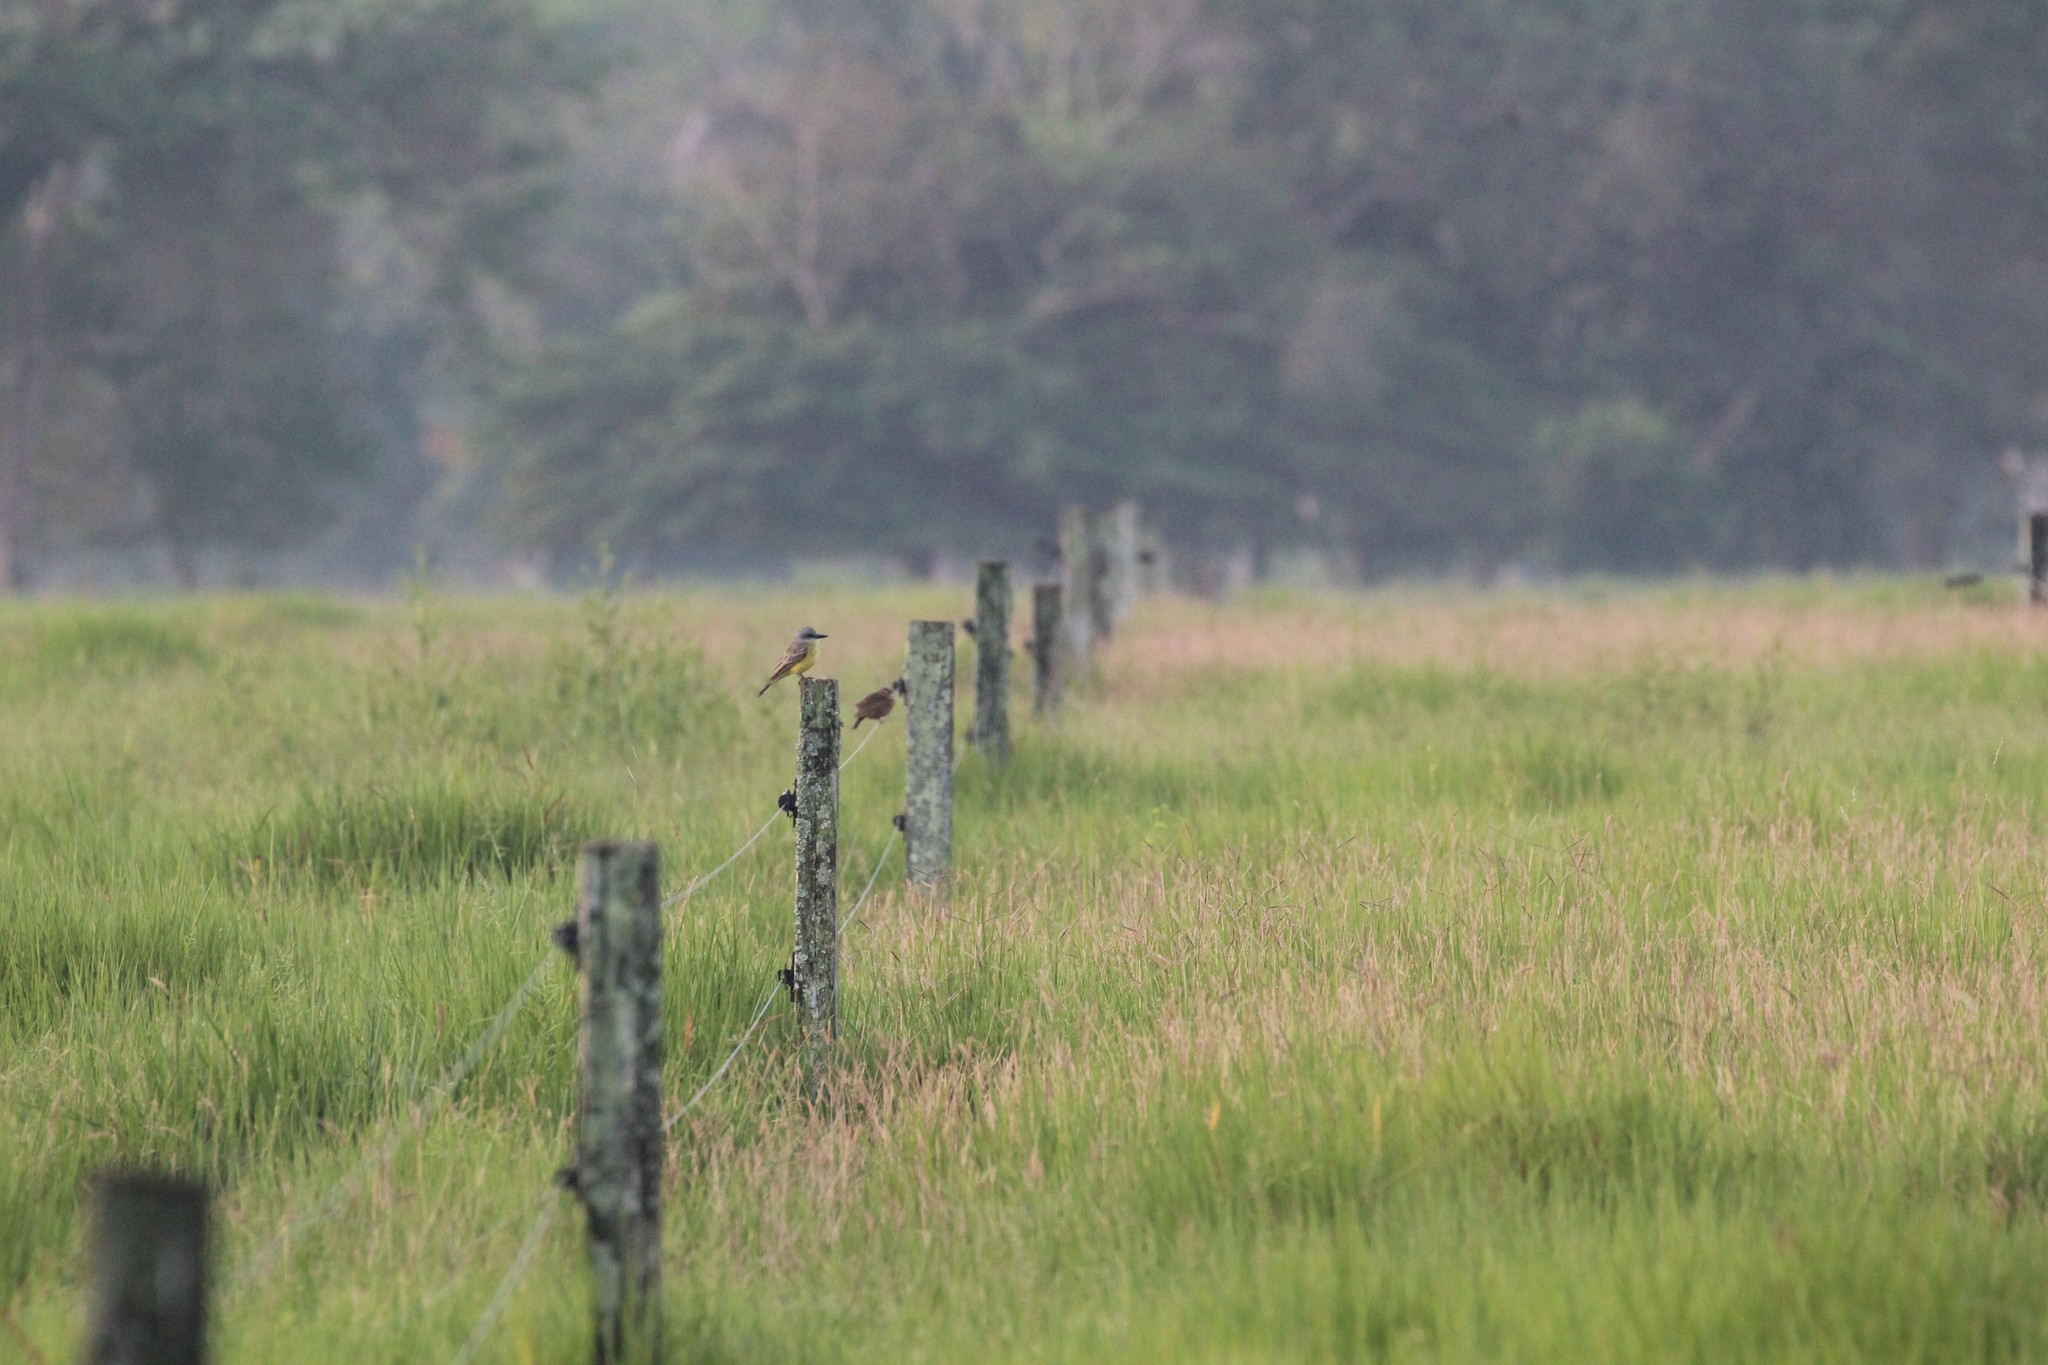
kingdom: Animalia
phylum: Chordata
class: Aves
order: Passeriformes
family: Tyrannidae
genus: Tyrannus
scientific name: Tyrannus melancholicus
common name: Tropical kingbird
